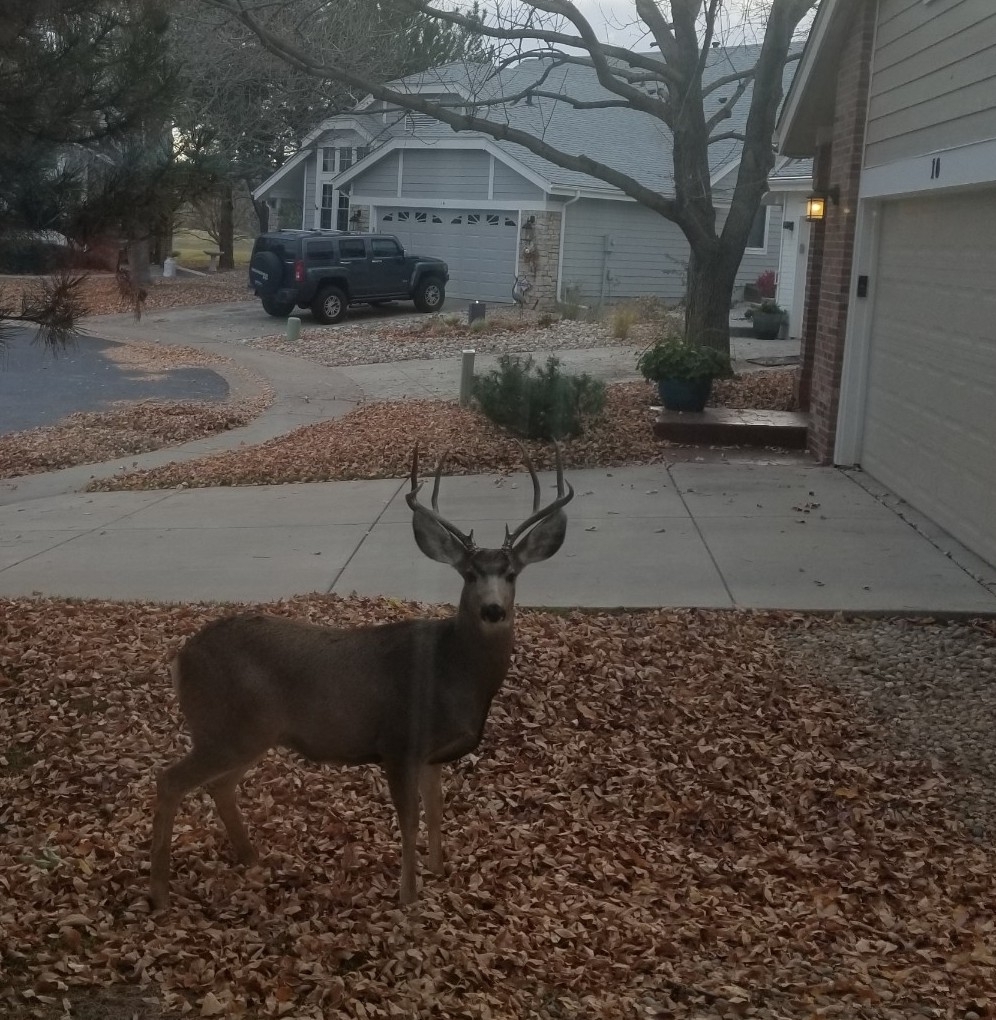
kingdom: Animalia
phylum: Chordata
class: Mammalia
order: Artiodactyla
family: Cervidae
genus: Odocoileus
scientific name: Odocoileus hemionus
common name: Mule deer
